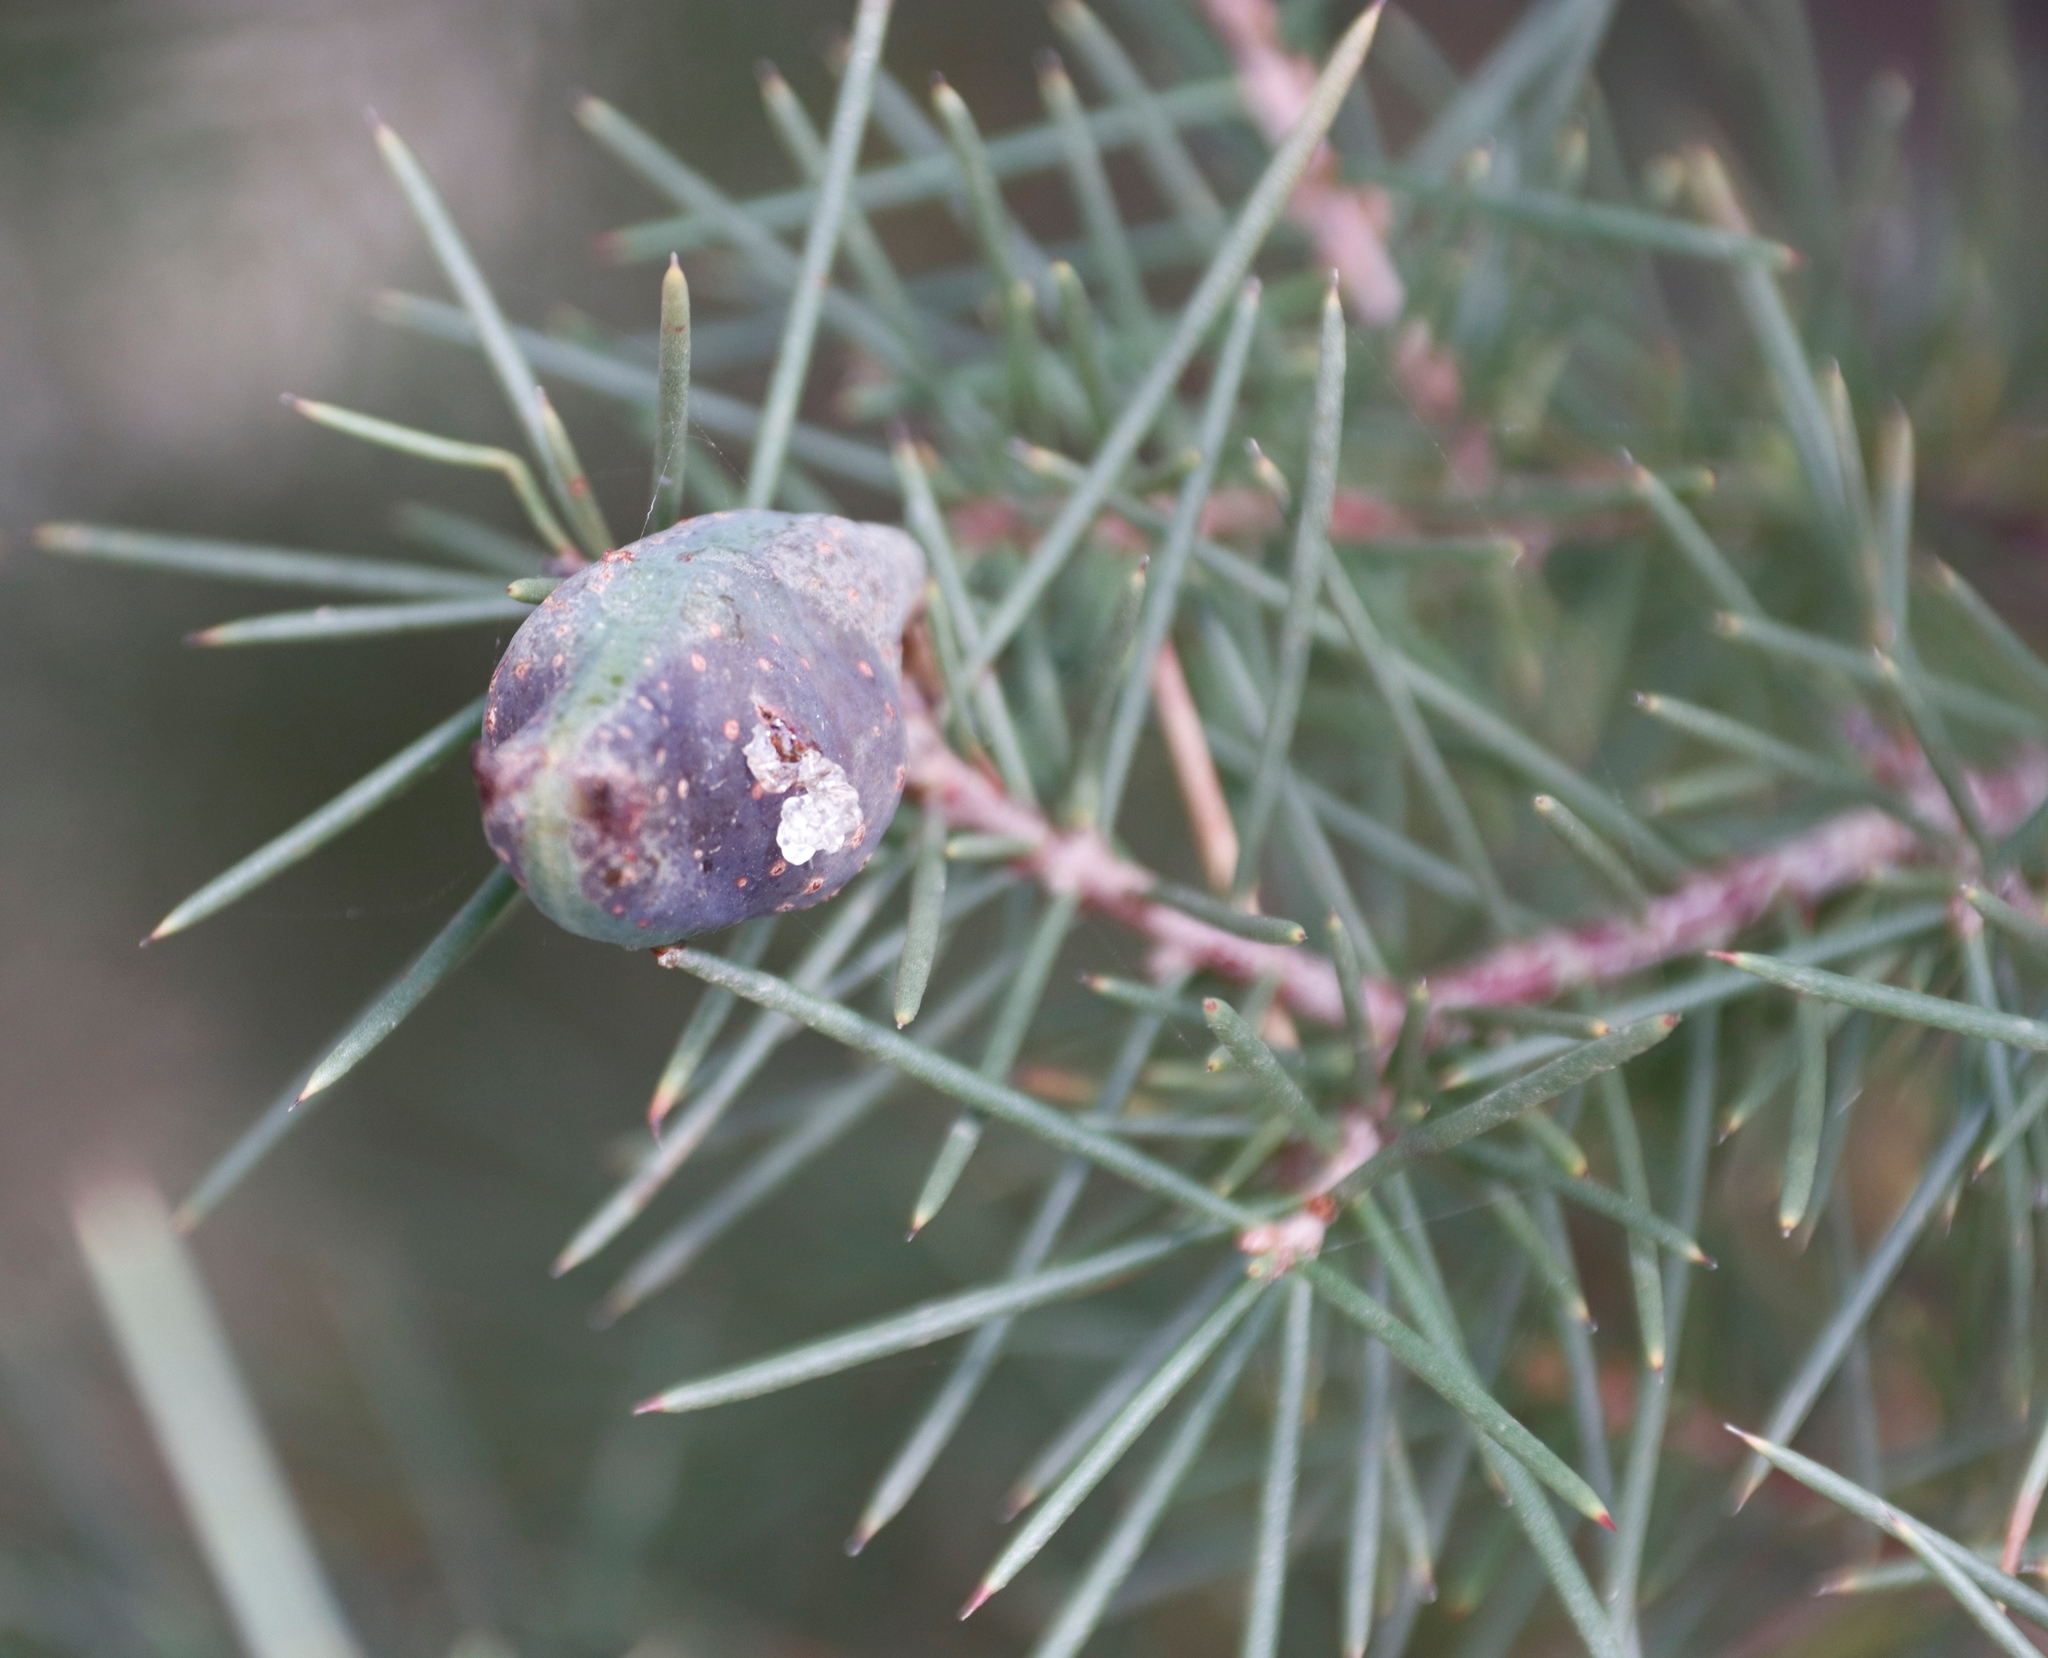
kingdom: Animalia
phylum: Arthropoda
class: Insecta
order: Coleoptera
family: Curculionidae
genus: Erytenna
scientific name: Erytenna consputa
